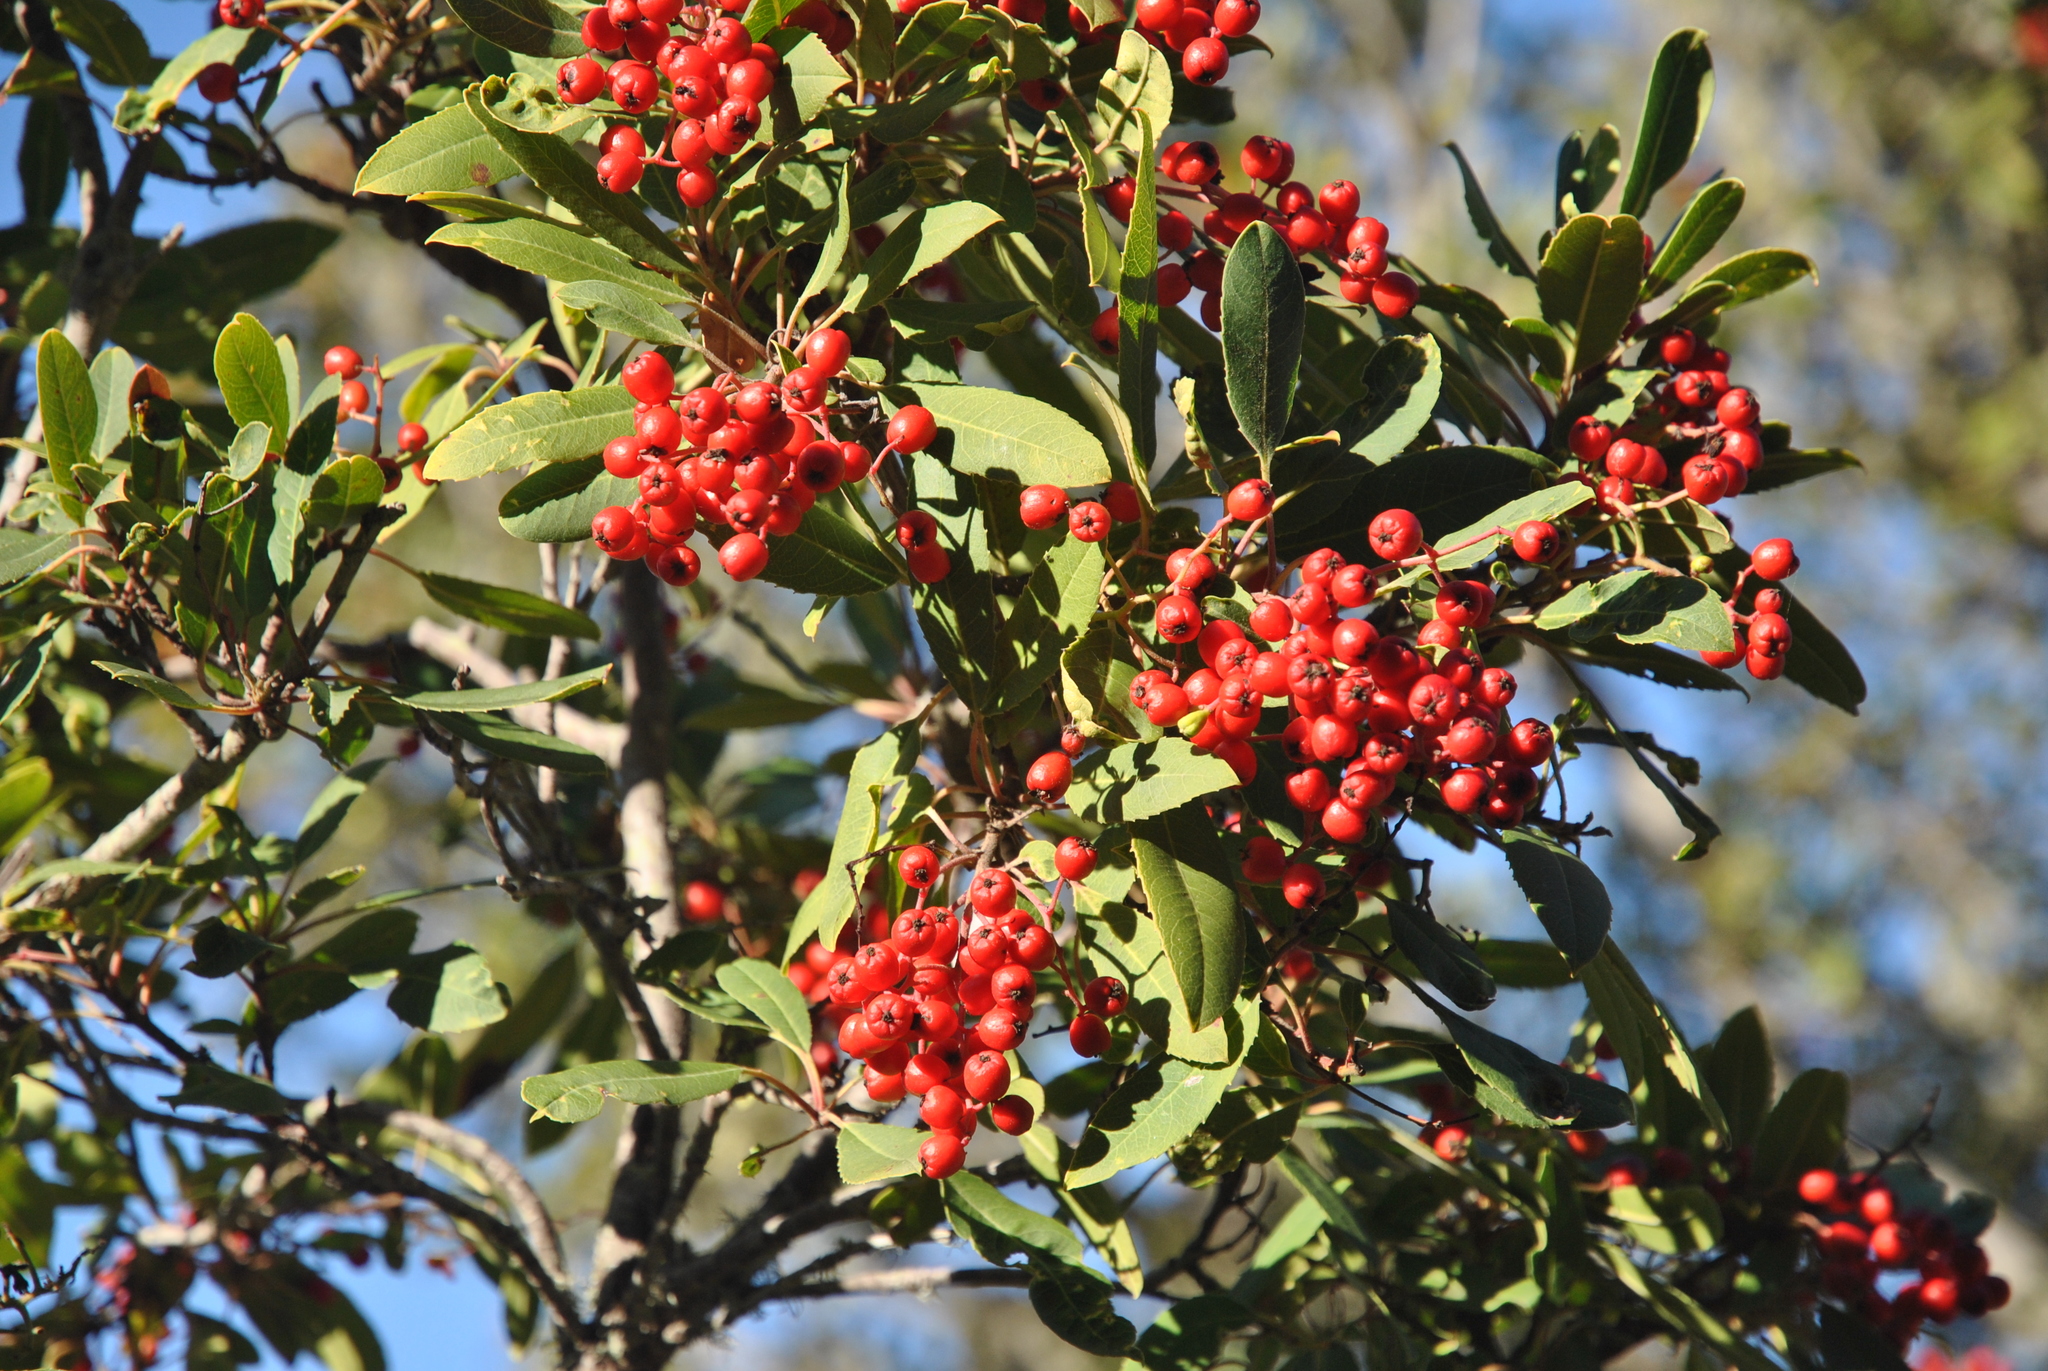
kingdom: Plantae
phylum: Tracheophyta
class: Magnoliopsida
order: Rosales
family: Rosaceae
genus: Heteromeles
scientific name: Heteromeles arbutifolia
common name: California-holly
